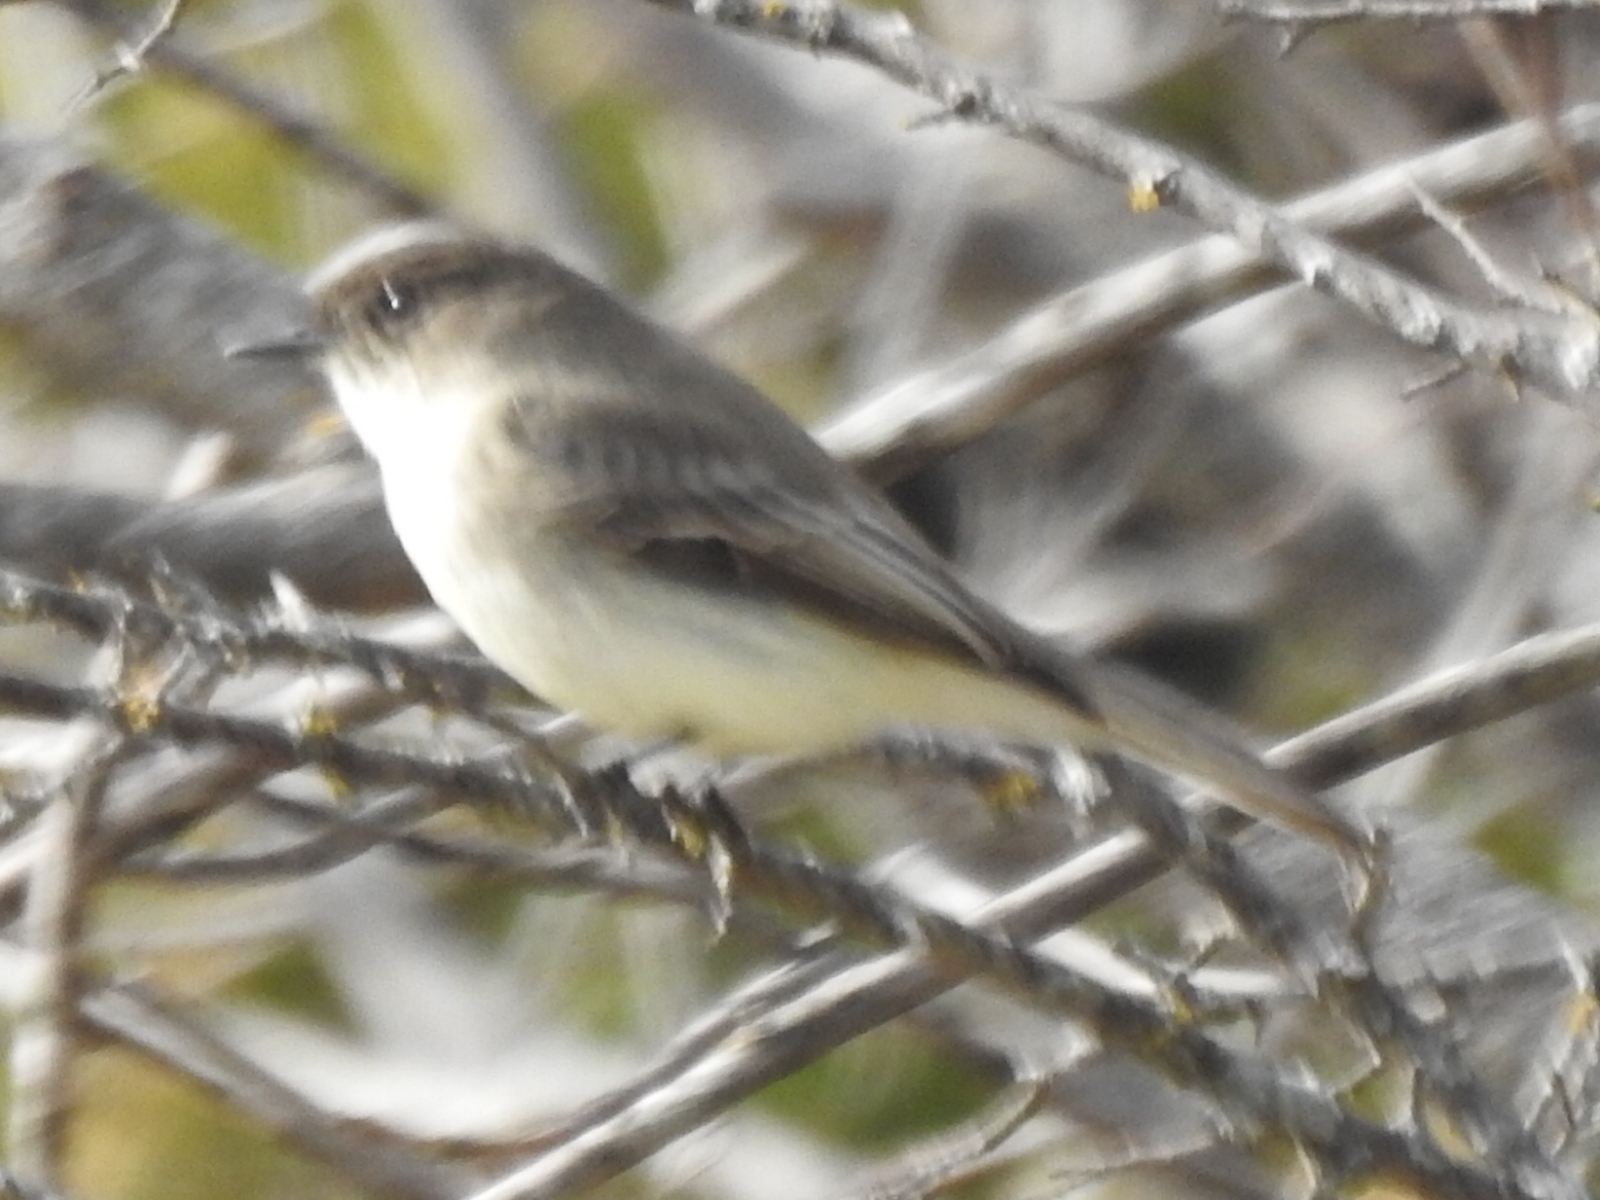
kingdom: Animalia
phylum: Chordata
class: Aves
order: Passeriformes
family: Tyrannidae
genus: Sayornis
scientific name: Sayornis phoebe
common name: Eastern phoebe
